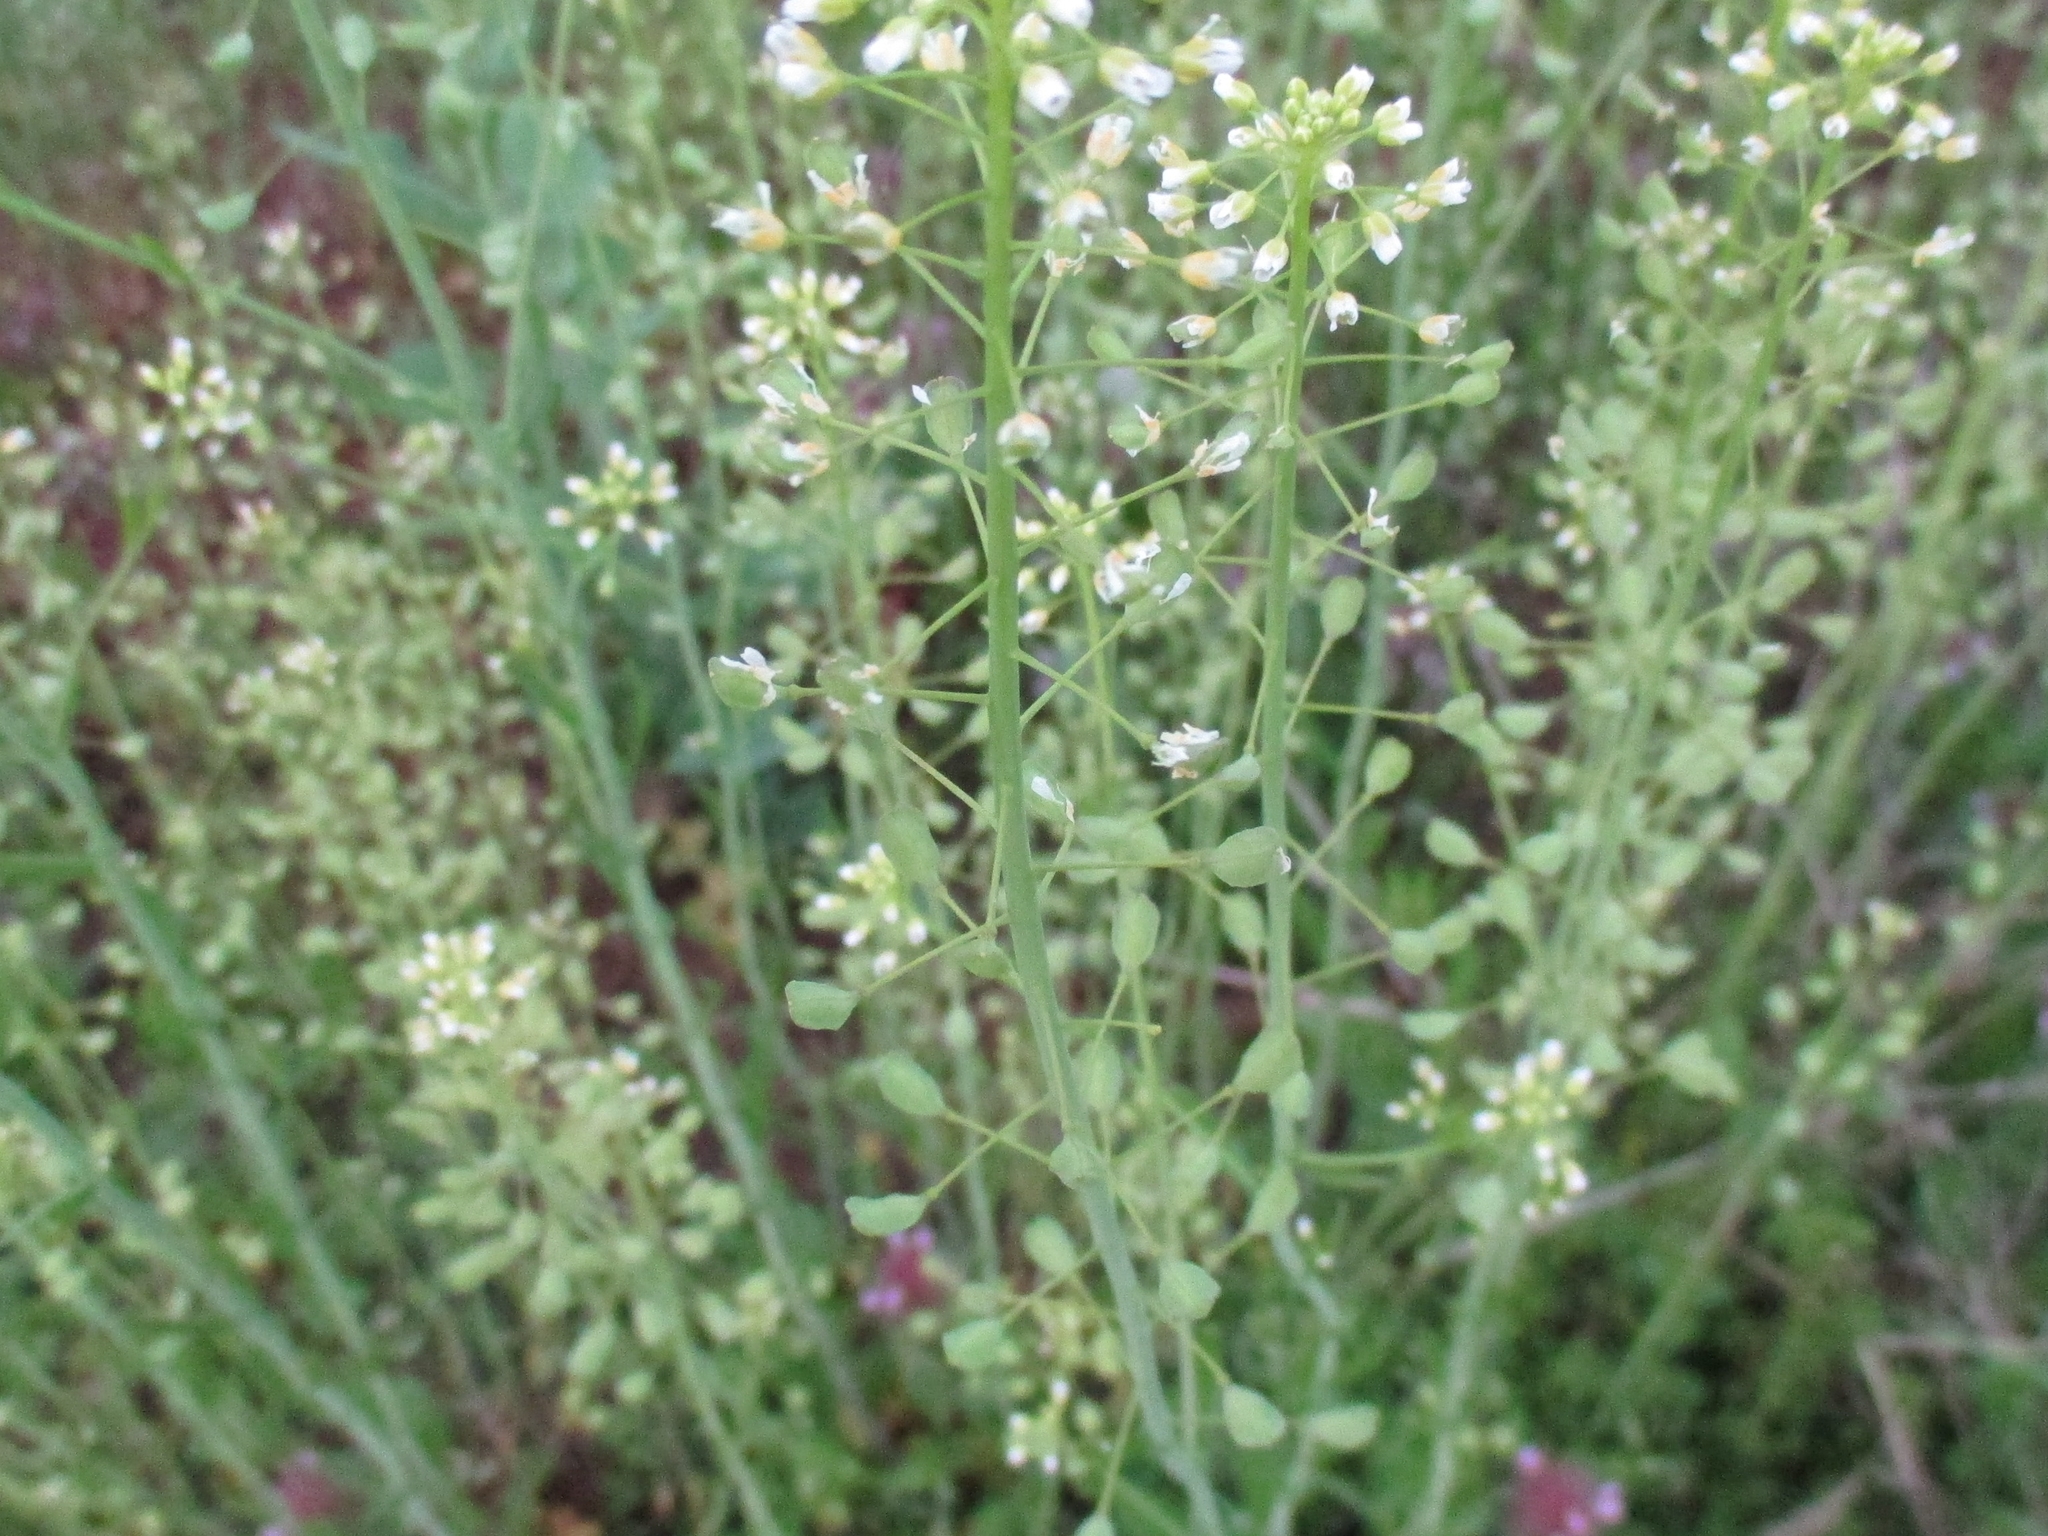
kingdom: Plantae
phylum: Tracheophyta
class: Magnoliopsida
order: Brassicales
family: Brassicaceae
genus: Mummenhoffia
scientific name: Mummenhoffia alliacea
